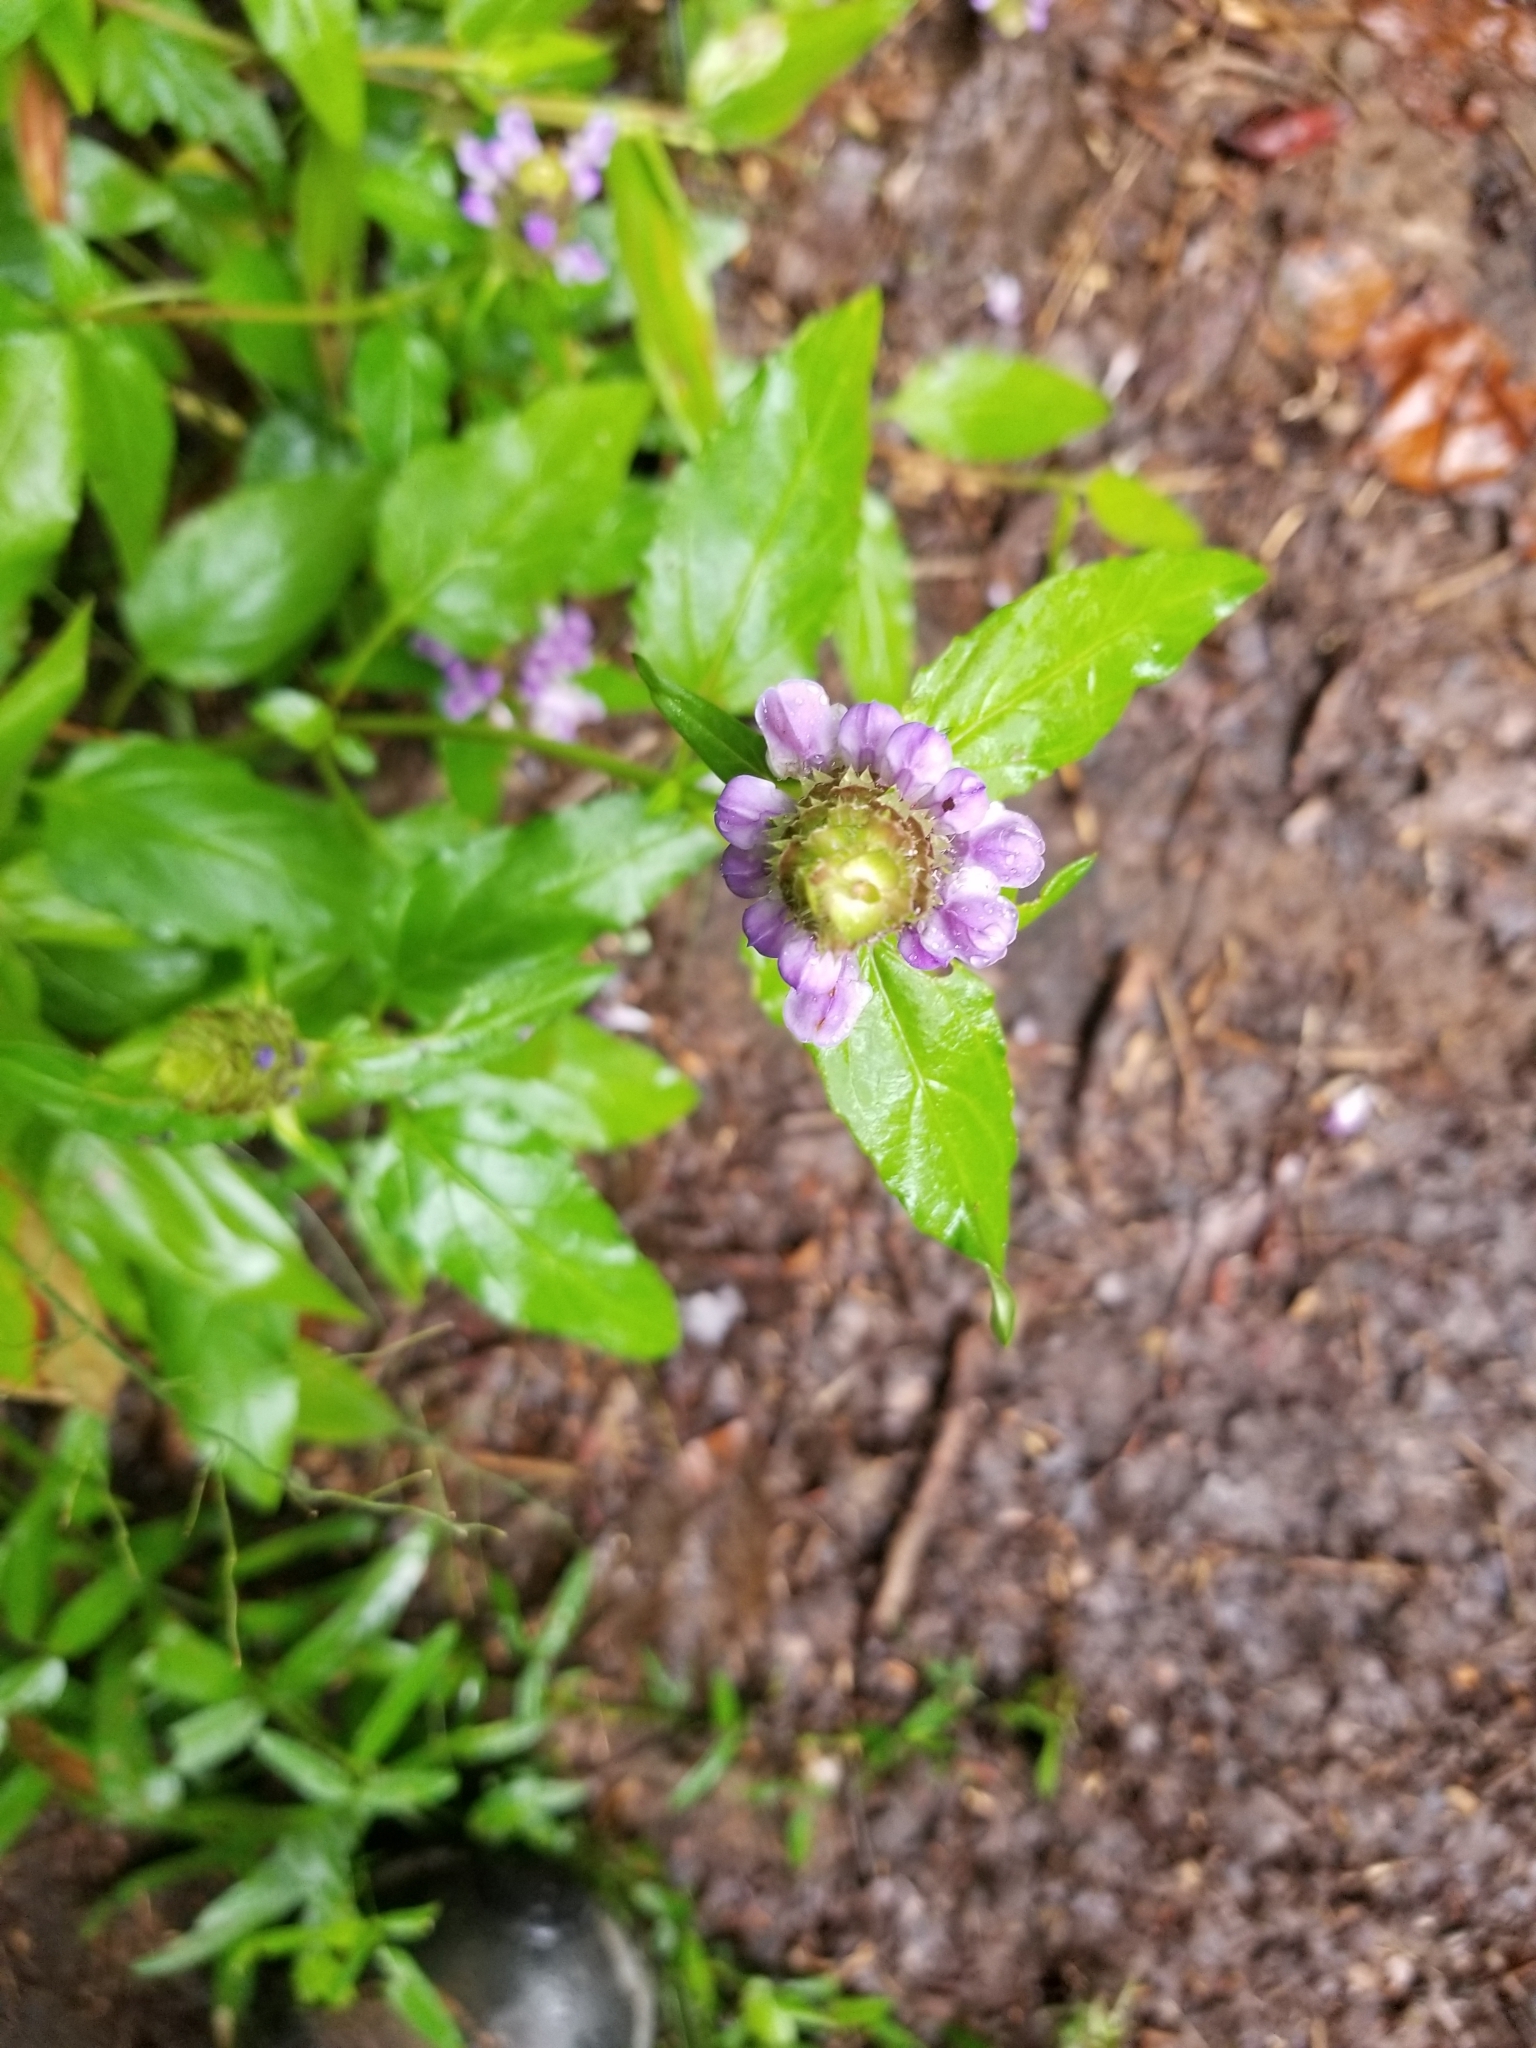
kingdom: Plantae
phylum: Tracheophyta
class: Magnoliopsida
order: Lamiales
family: Lamiaceae
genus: Prunella
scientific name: Prunella vulgaris
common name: Heal-all
